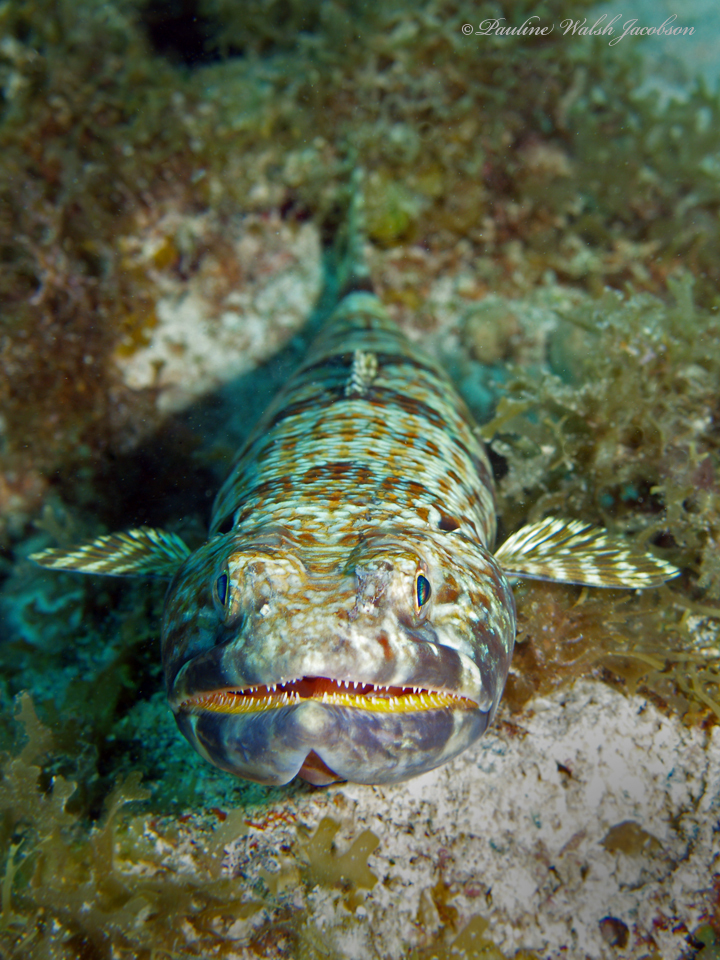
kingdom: Animalia
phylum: Chordata
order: Aulopiformes
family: Synodontidae
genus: Synodus
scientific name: Synodus intermedius
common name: Sand diver
